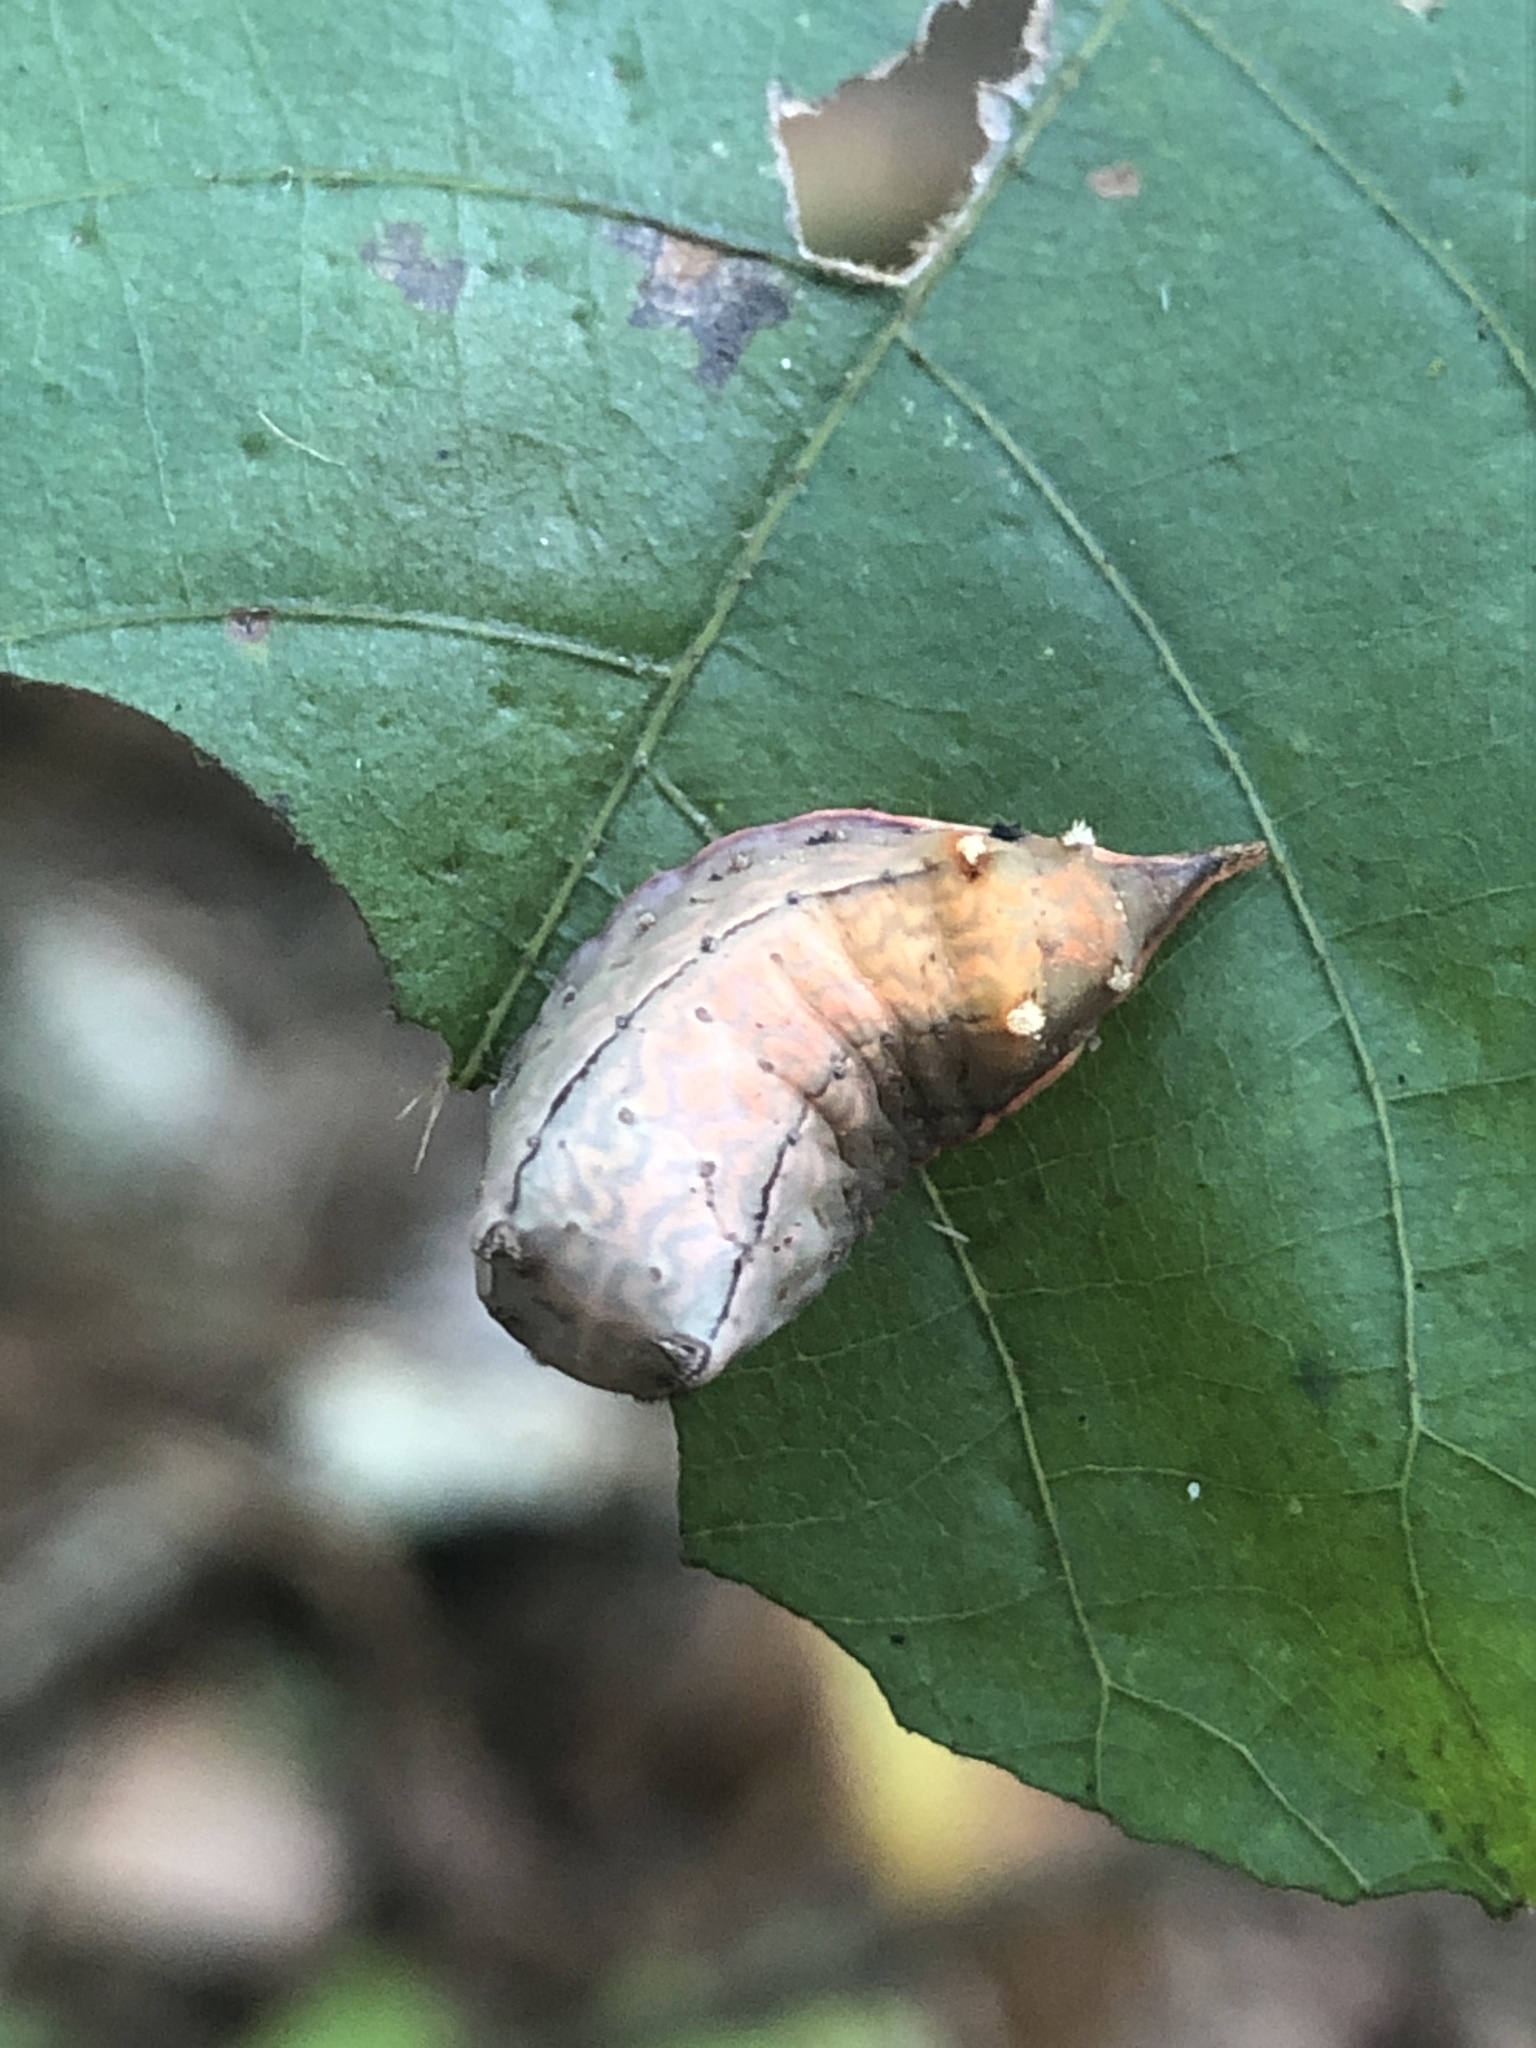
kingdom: Animalia
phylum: Arthropoda
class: Insecta
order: Lepidoptera
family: Limacodidae
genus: Parasa
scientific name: Parasa chloris
